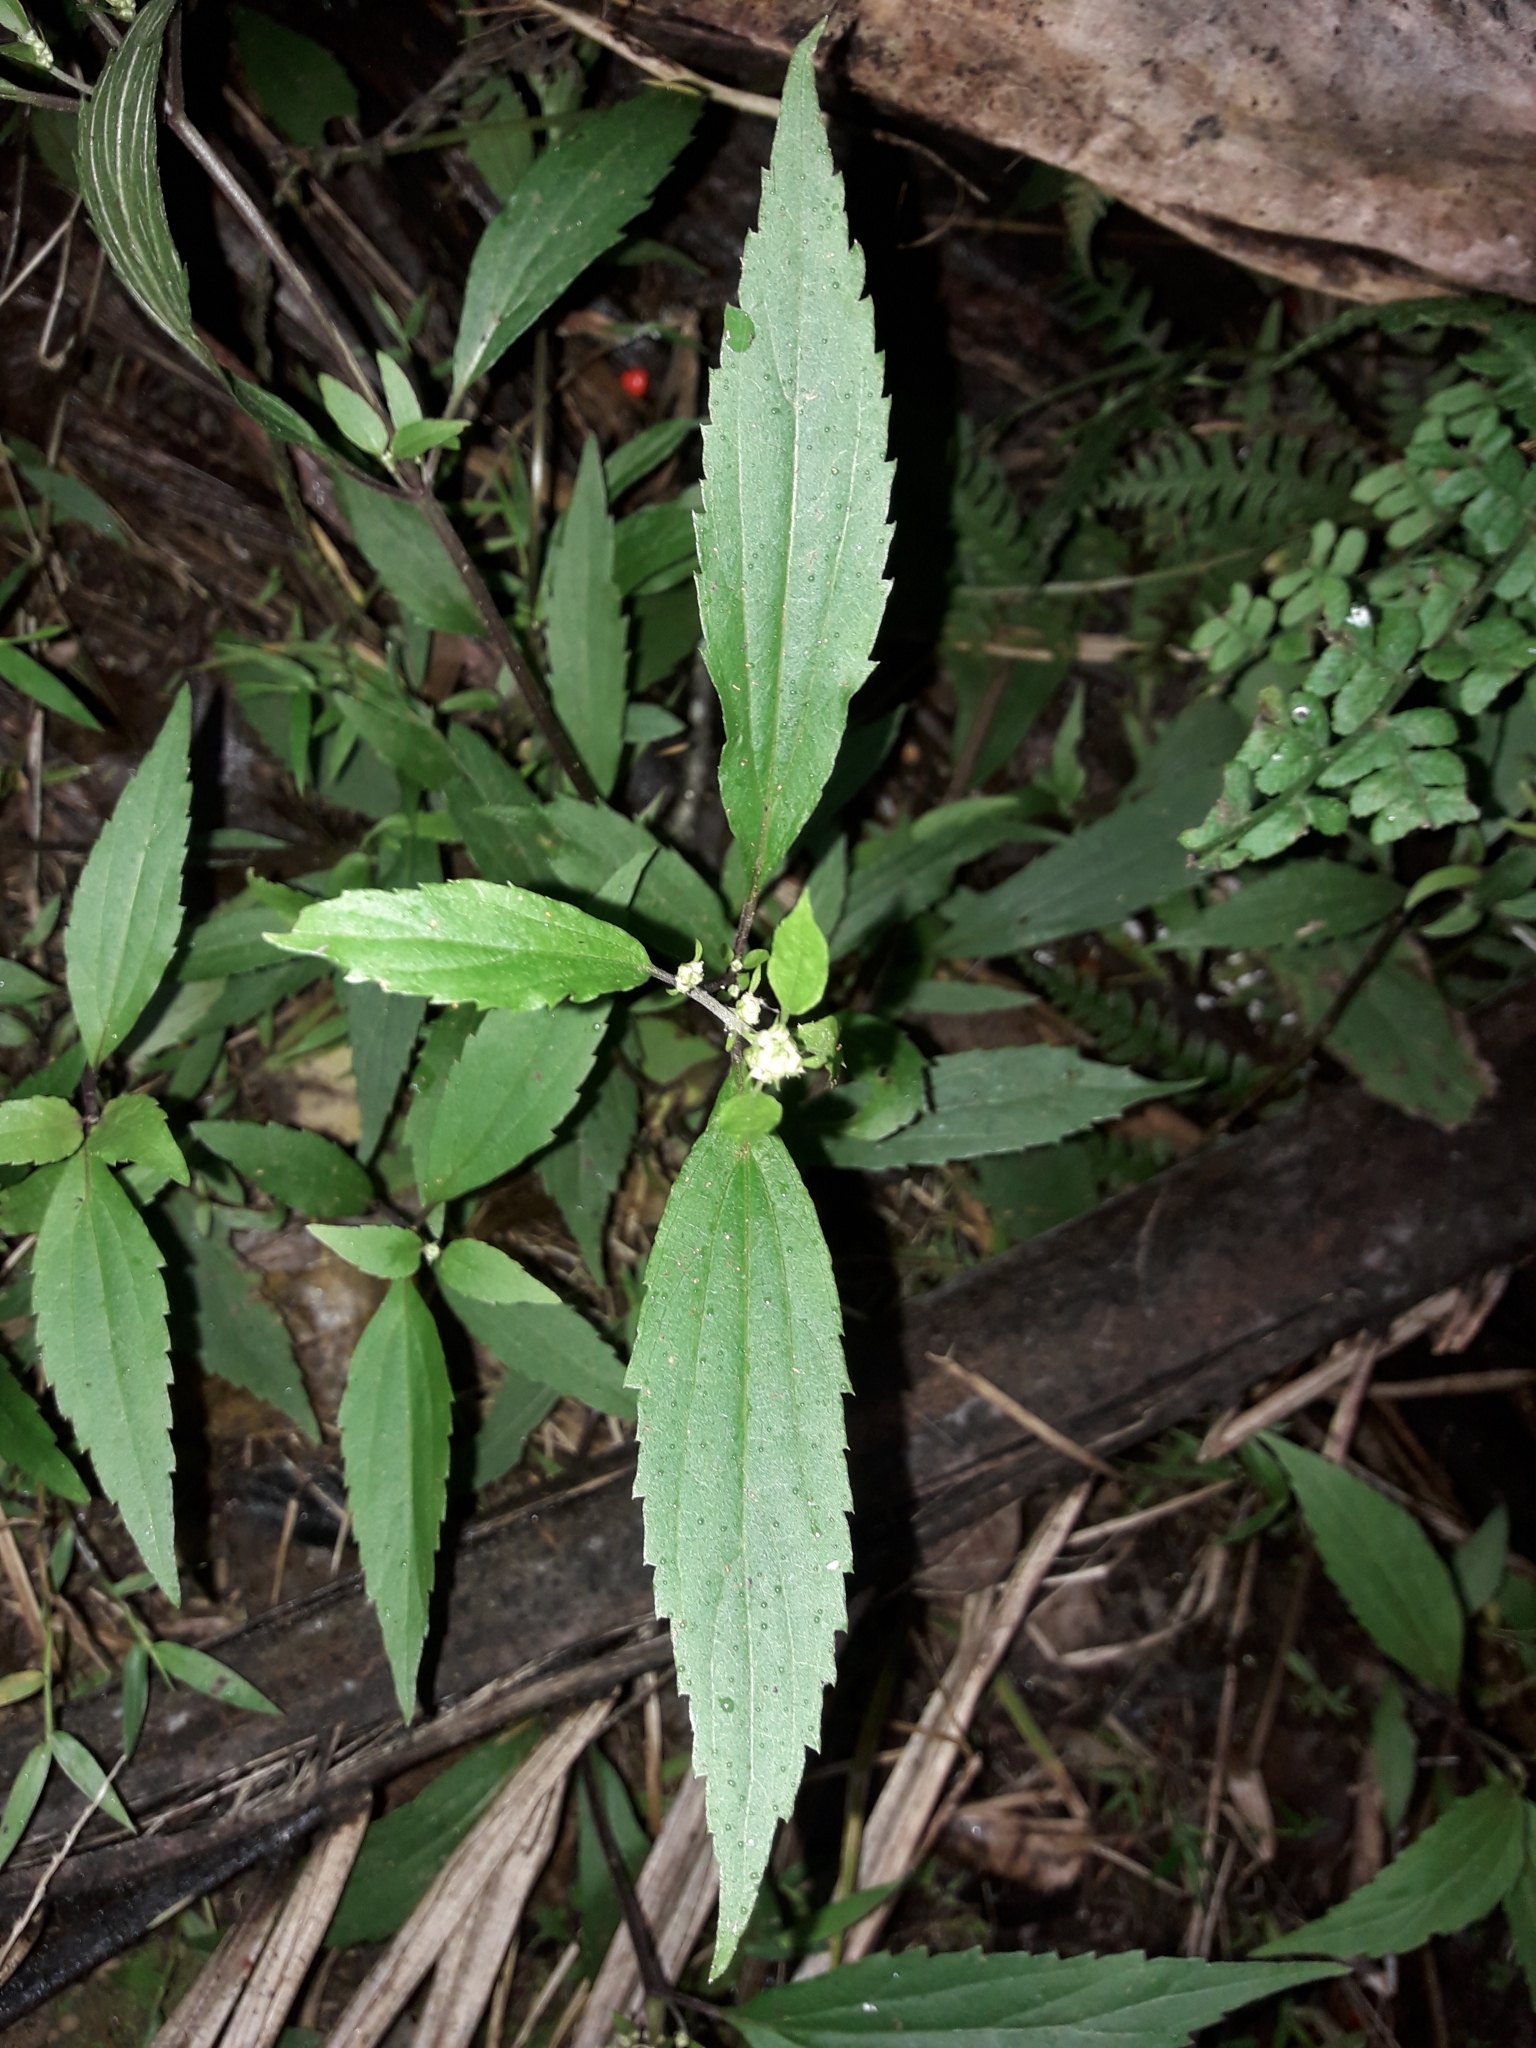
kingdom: Plantae
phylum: Tracheophyta
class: Magnoliopsida
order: Asterales
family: Asteraceae
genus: Ageratina
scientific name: Ageratina riparia
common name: Creeping croftonweed
